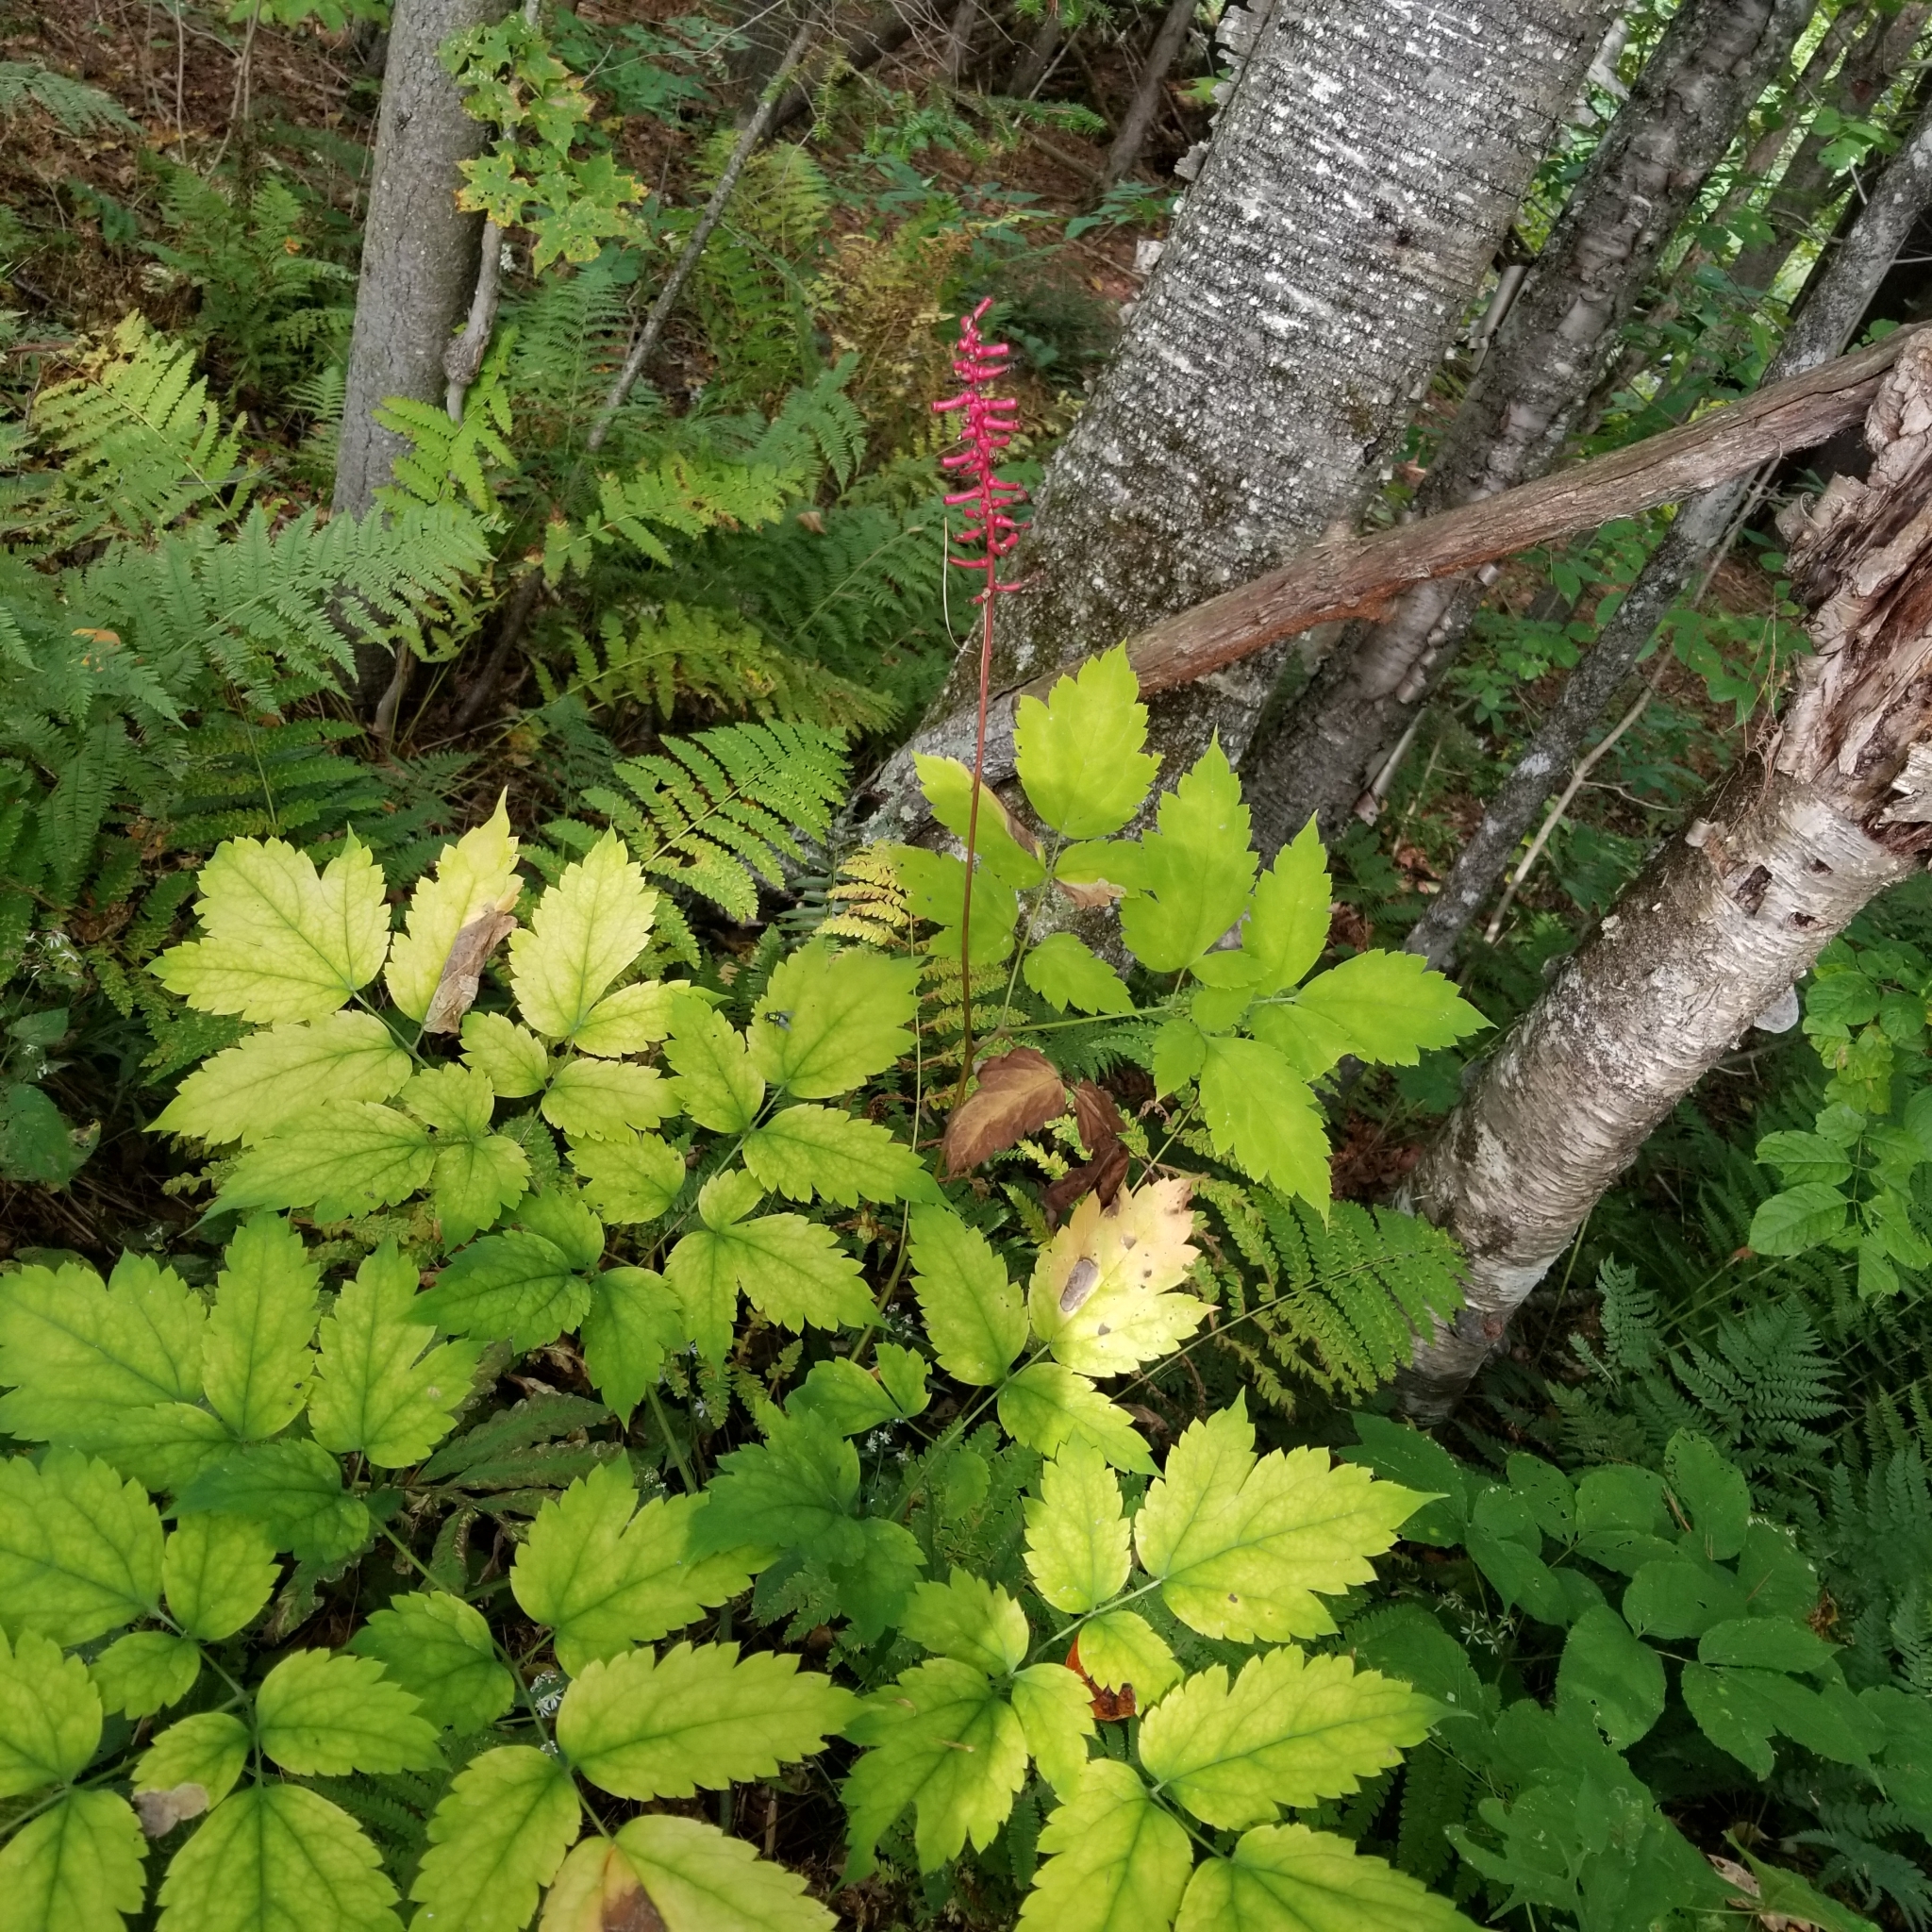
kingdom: Plantae
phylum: Tracheophyta
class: Magnoliopsida
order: Ranunculales
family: Ranunculaceae
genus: Actaea
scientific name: Actaea pachypoda
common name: Doll's-eyes
